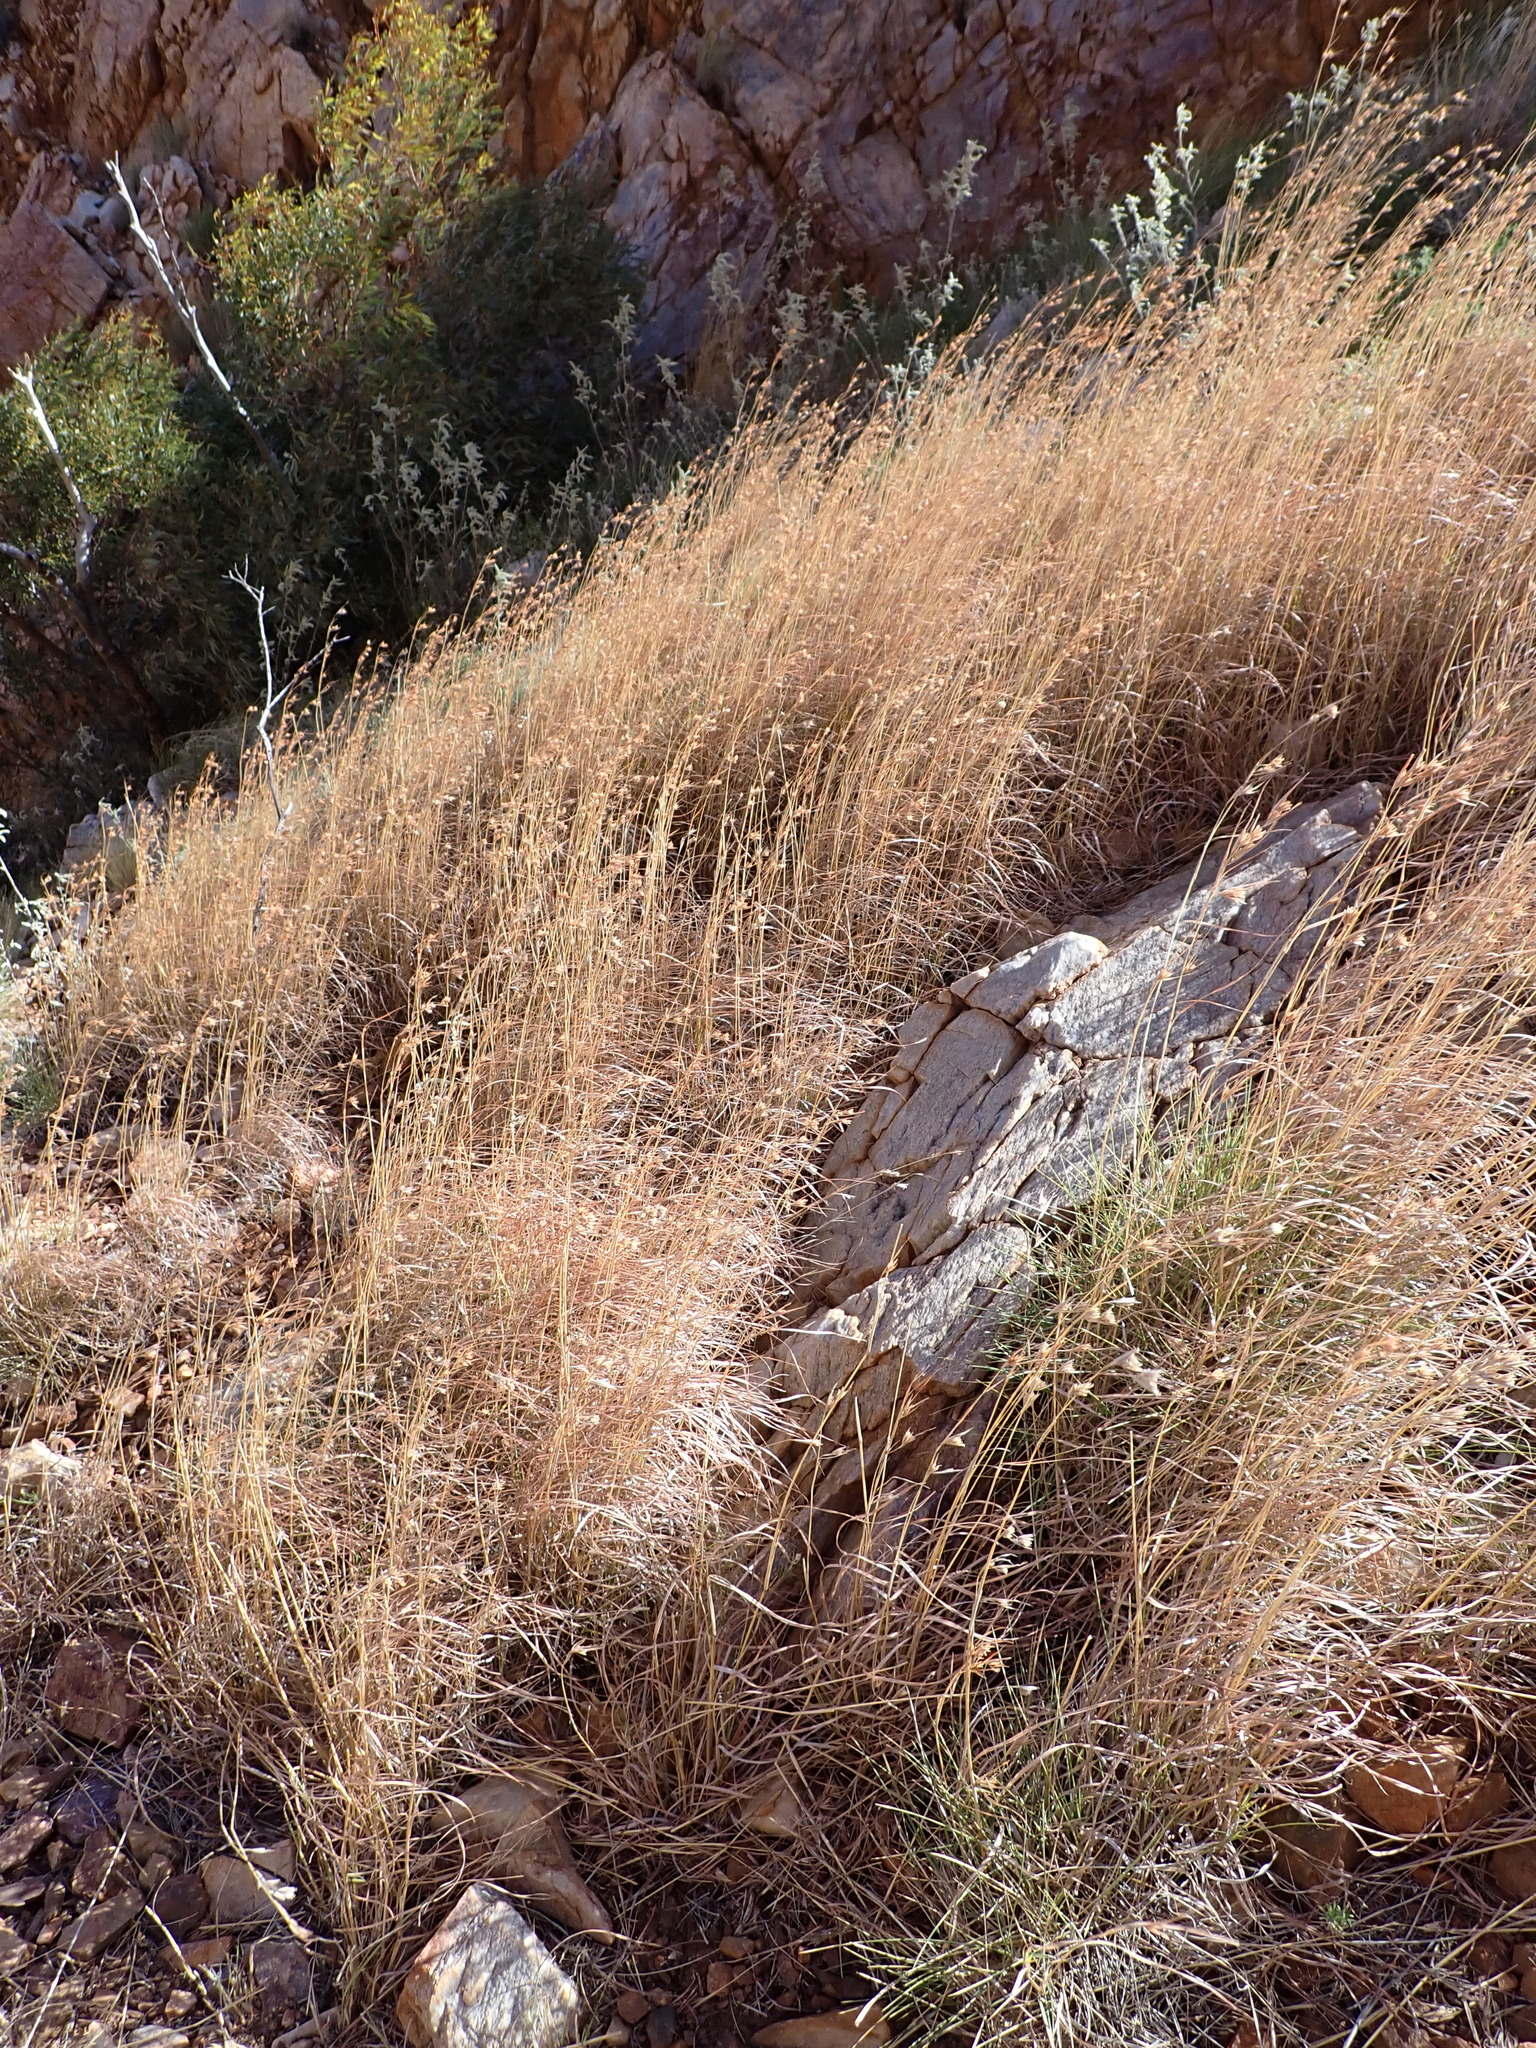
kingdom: Plantae
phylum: Tracheophyta
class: Liliopsida
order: Poales
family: Poaceae
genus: Themeda
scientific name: Themeda triandra
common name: Kangaroo grass
